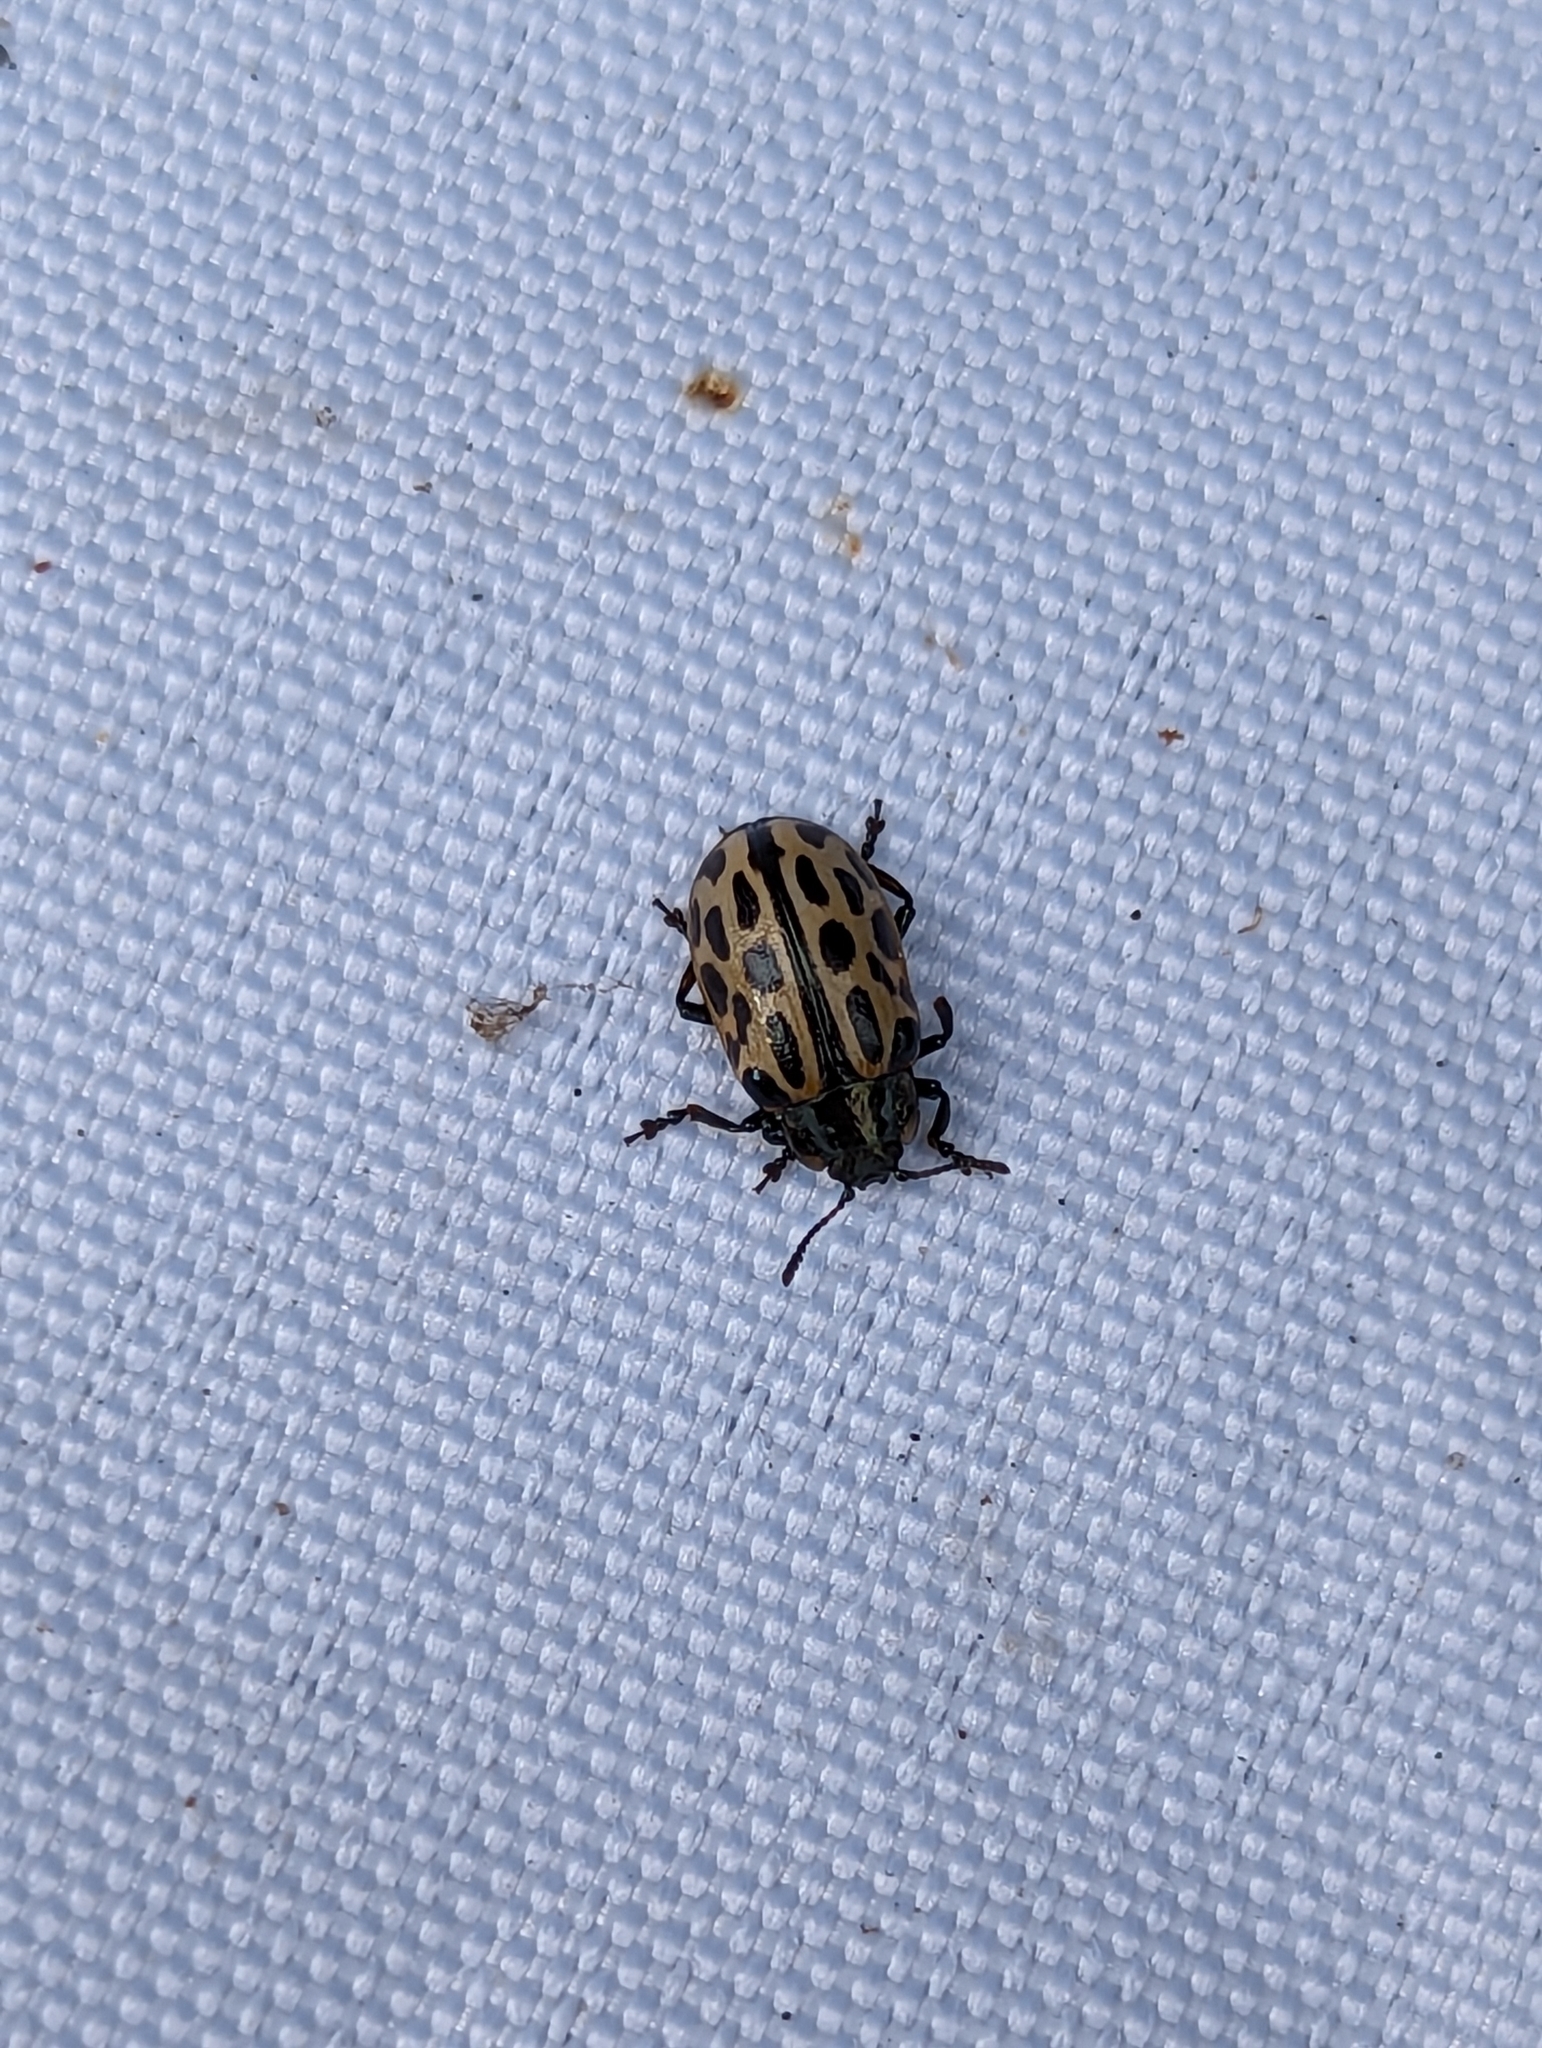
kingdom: Animalia
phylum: Arthropoda
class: Insecta
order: Coleoptera
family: Chrysomelidae
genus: Chrysomela
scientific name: Chrysomela vigintipunctata
